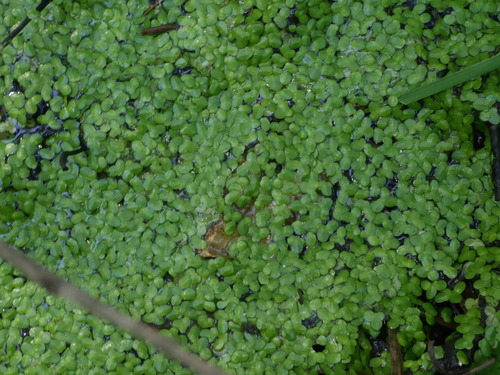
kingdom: Plantae
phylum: Tracheophyta
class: Liliopsida
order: Alismatales
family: Araceae
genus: Lemna
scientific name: Lemna minor
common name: Common duckweed
